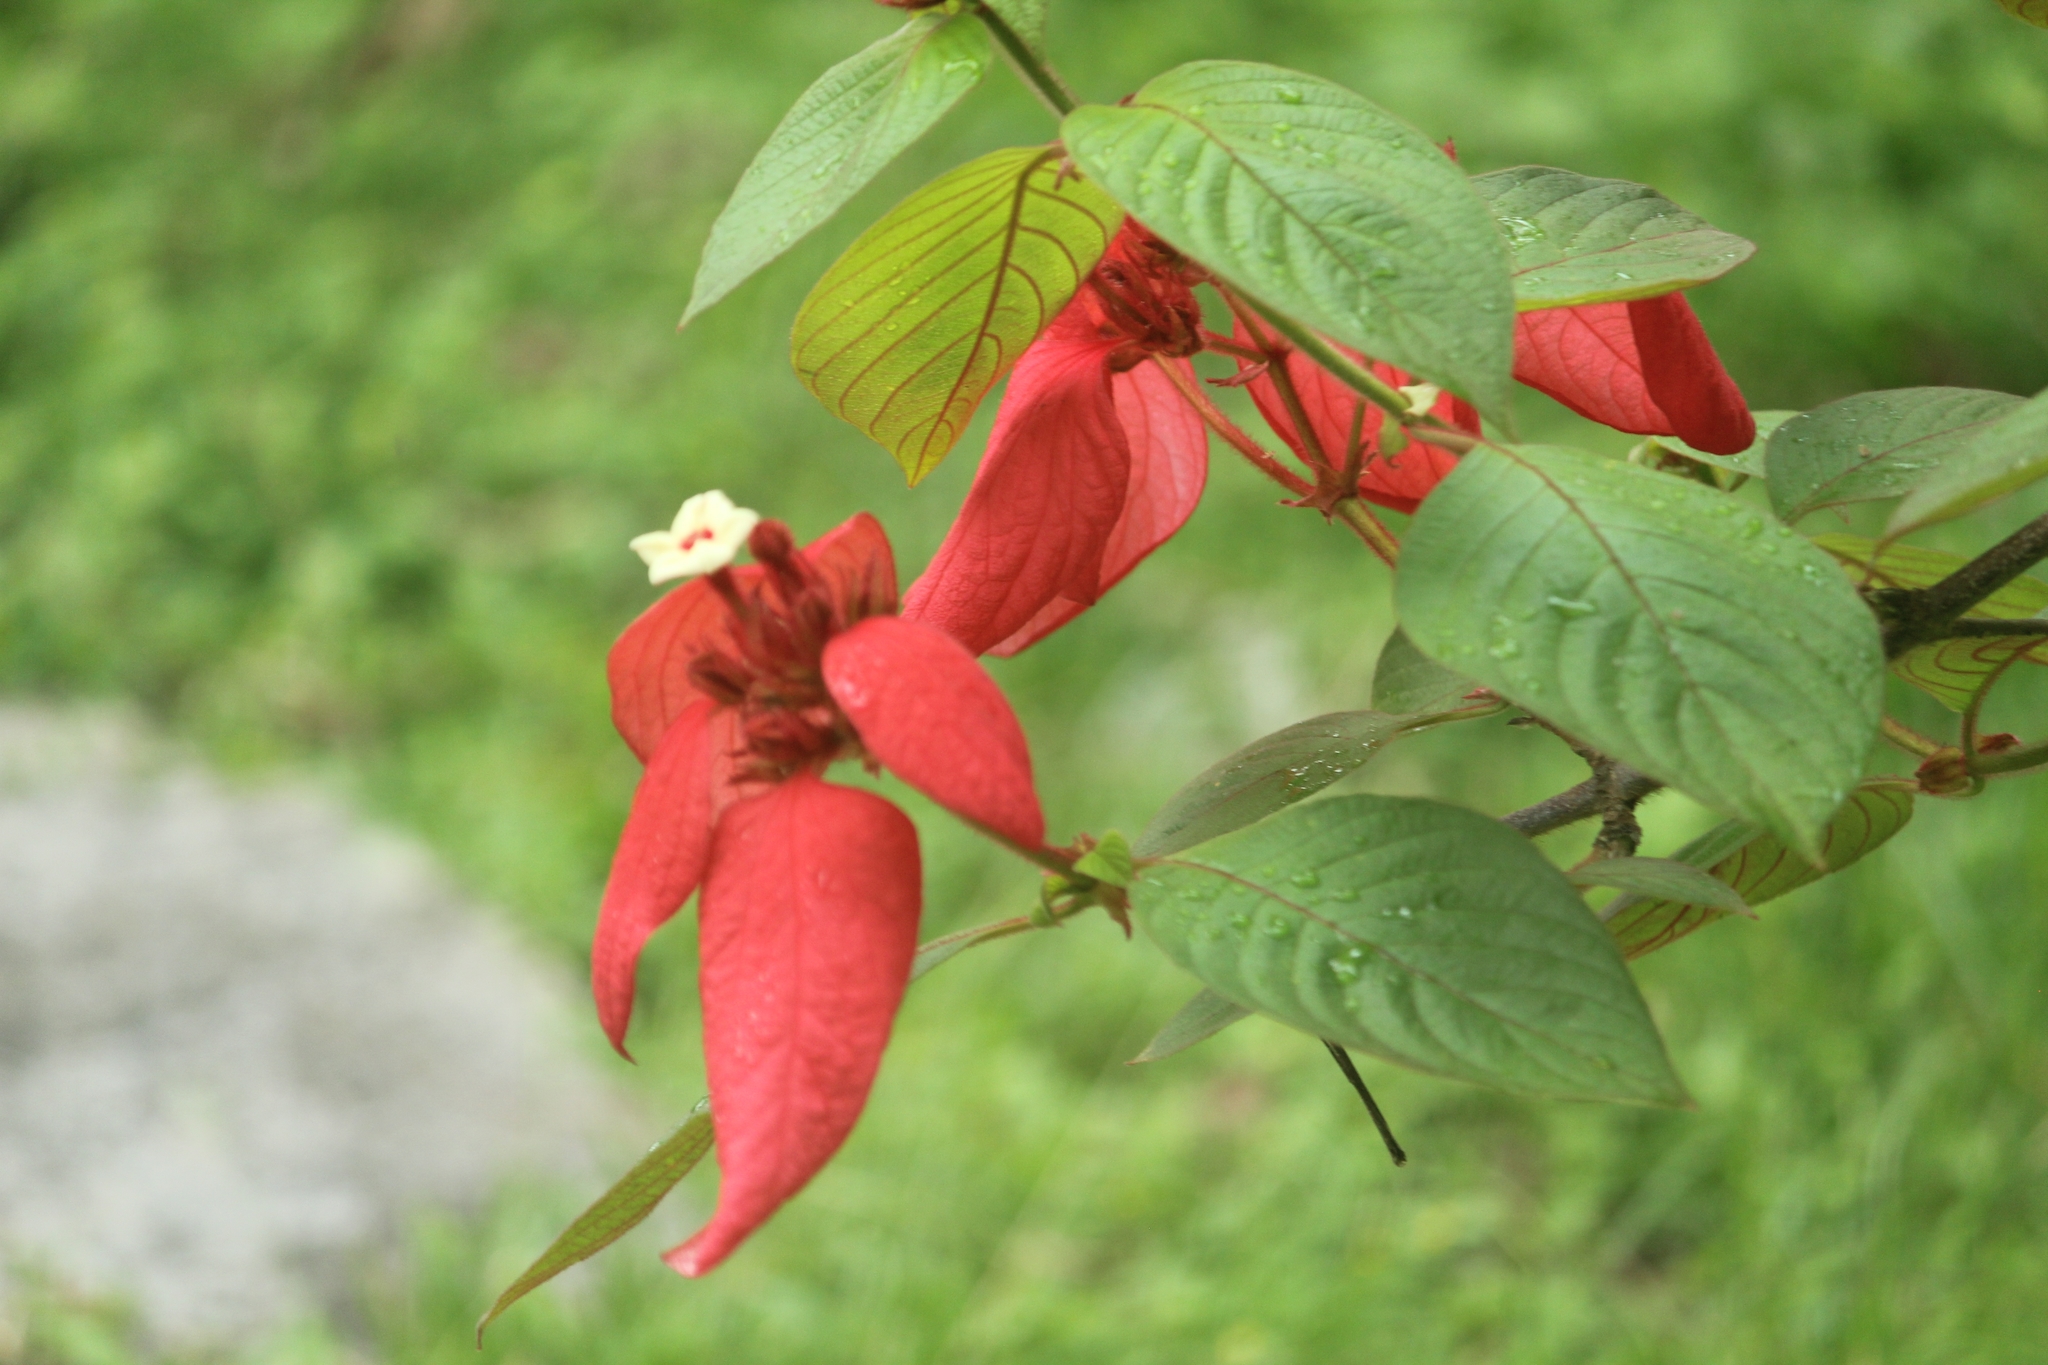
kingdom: Plantae
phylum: Tracheophyta
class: Magnoliopsida
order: Gentianales
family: Rubiaceae
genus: Mussaenda
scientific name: Mussaenda erythrophylla
